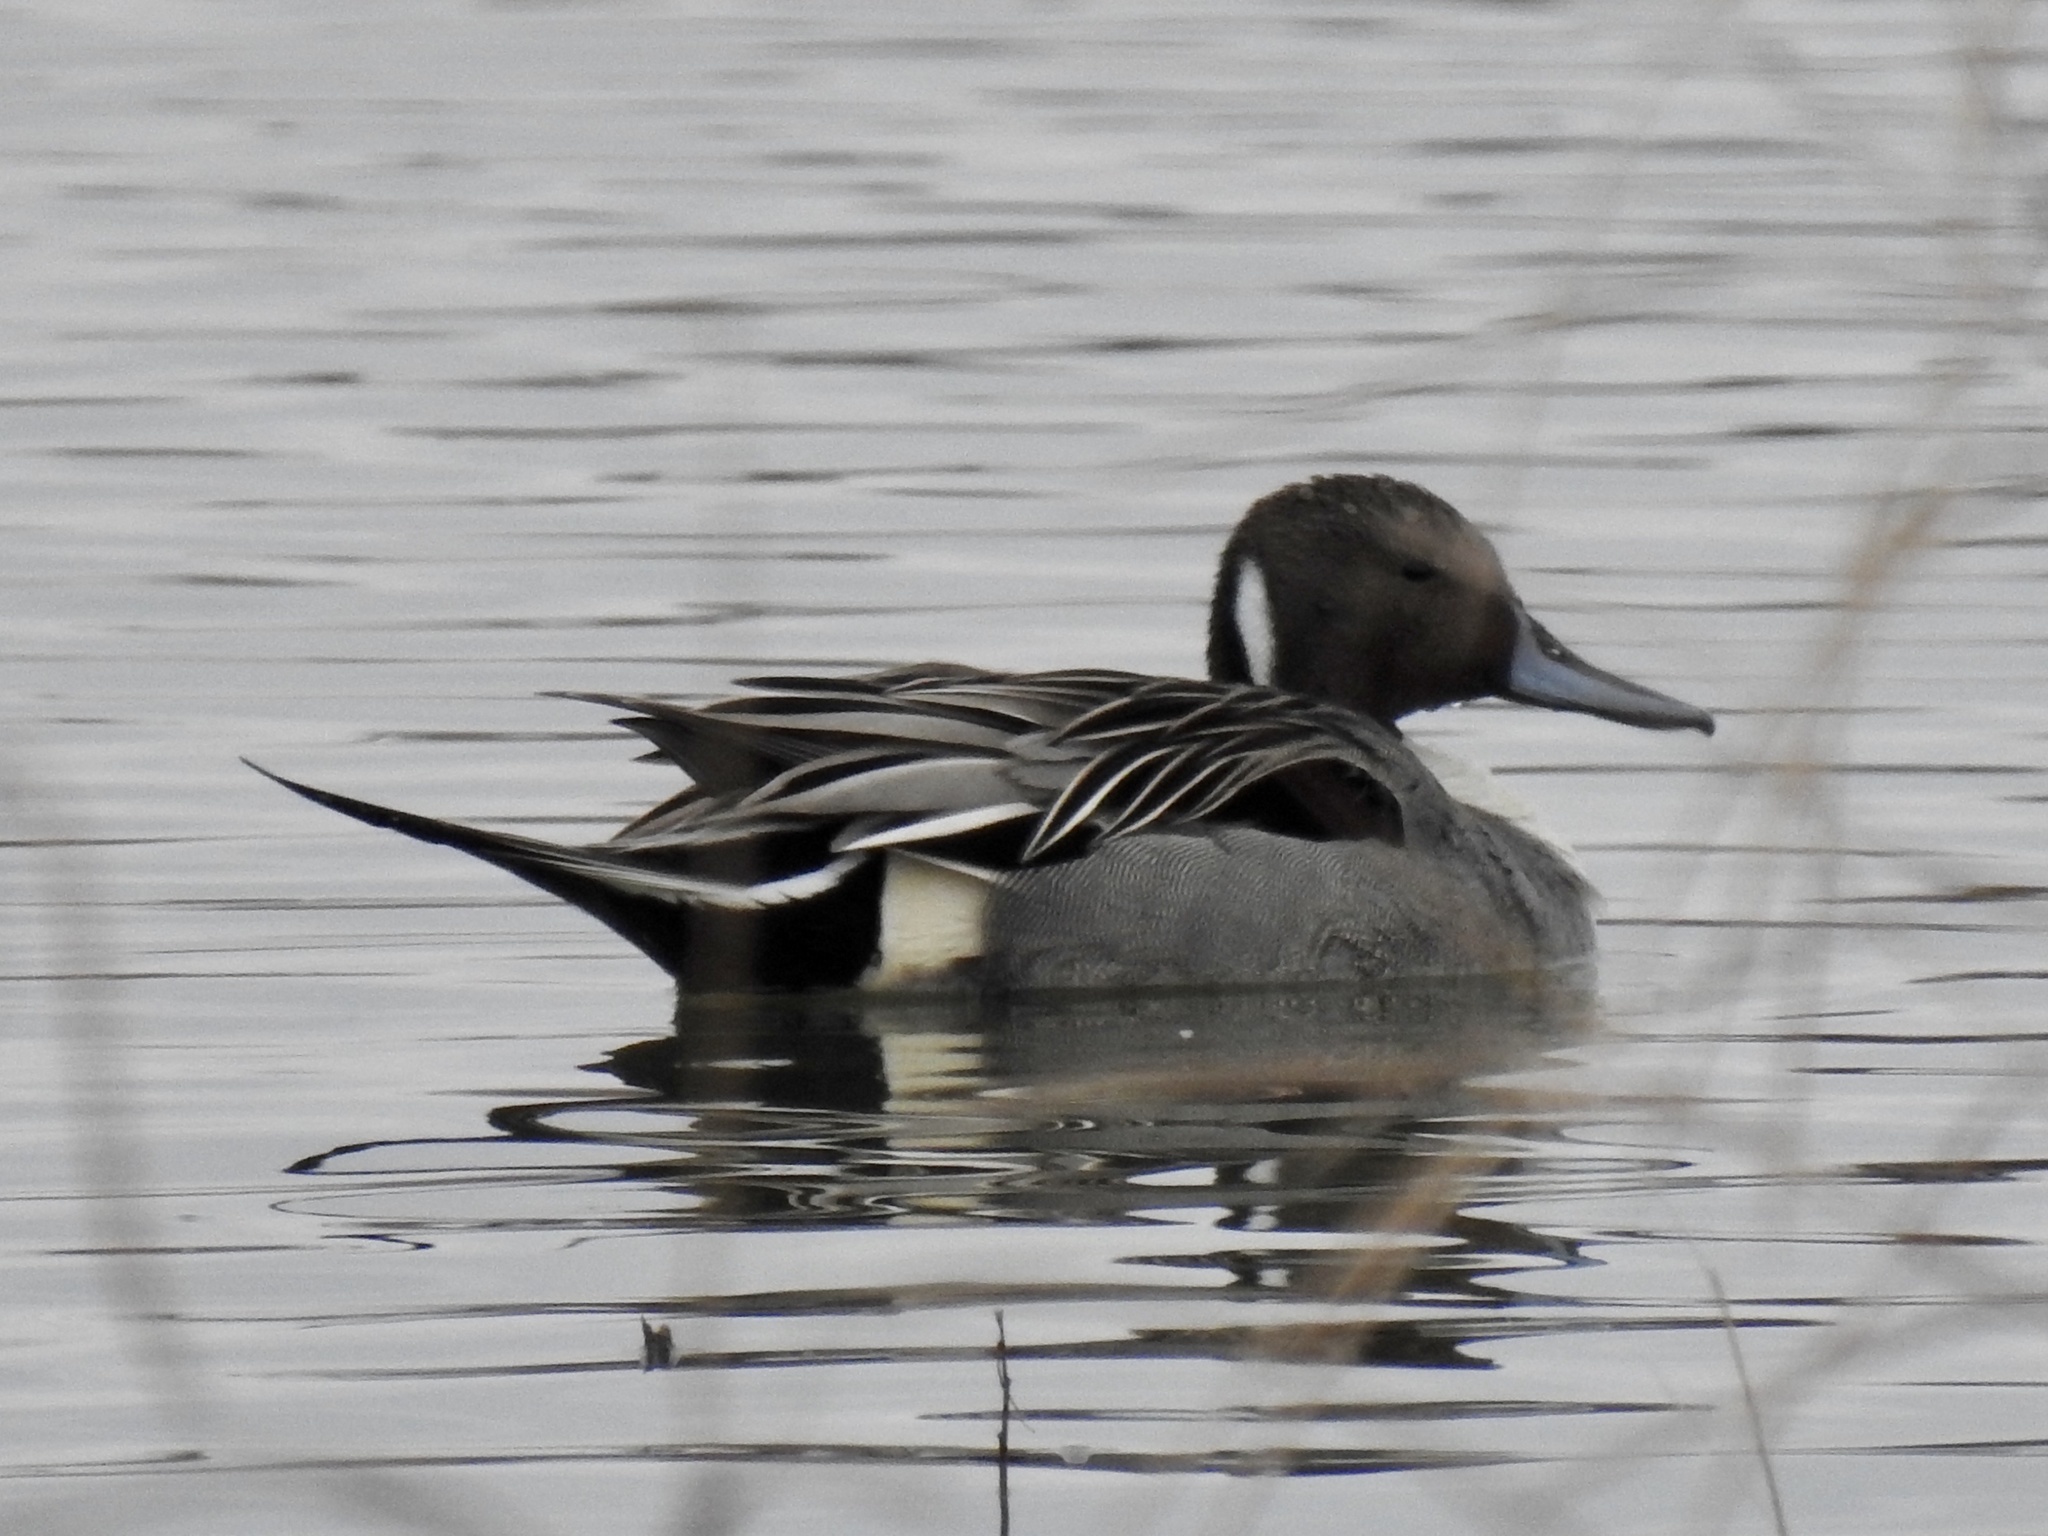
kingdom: Animalia
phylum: Chordata
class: Aves
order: Anseriformes
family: Anatidae
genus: Anas
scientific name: Anas acuta
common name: Northern pintail
